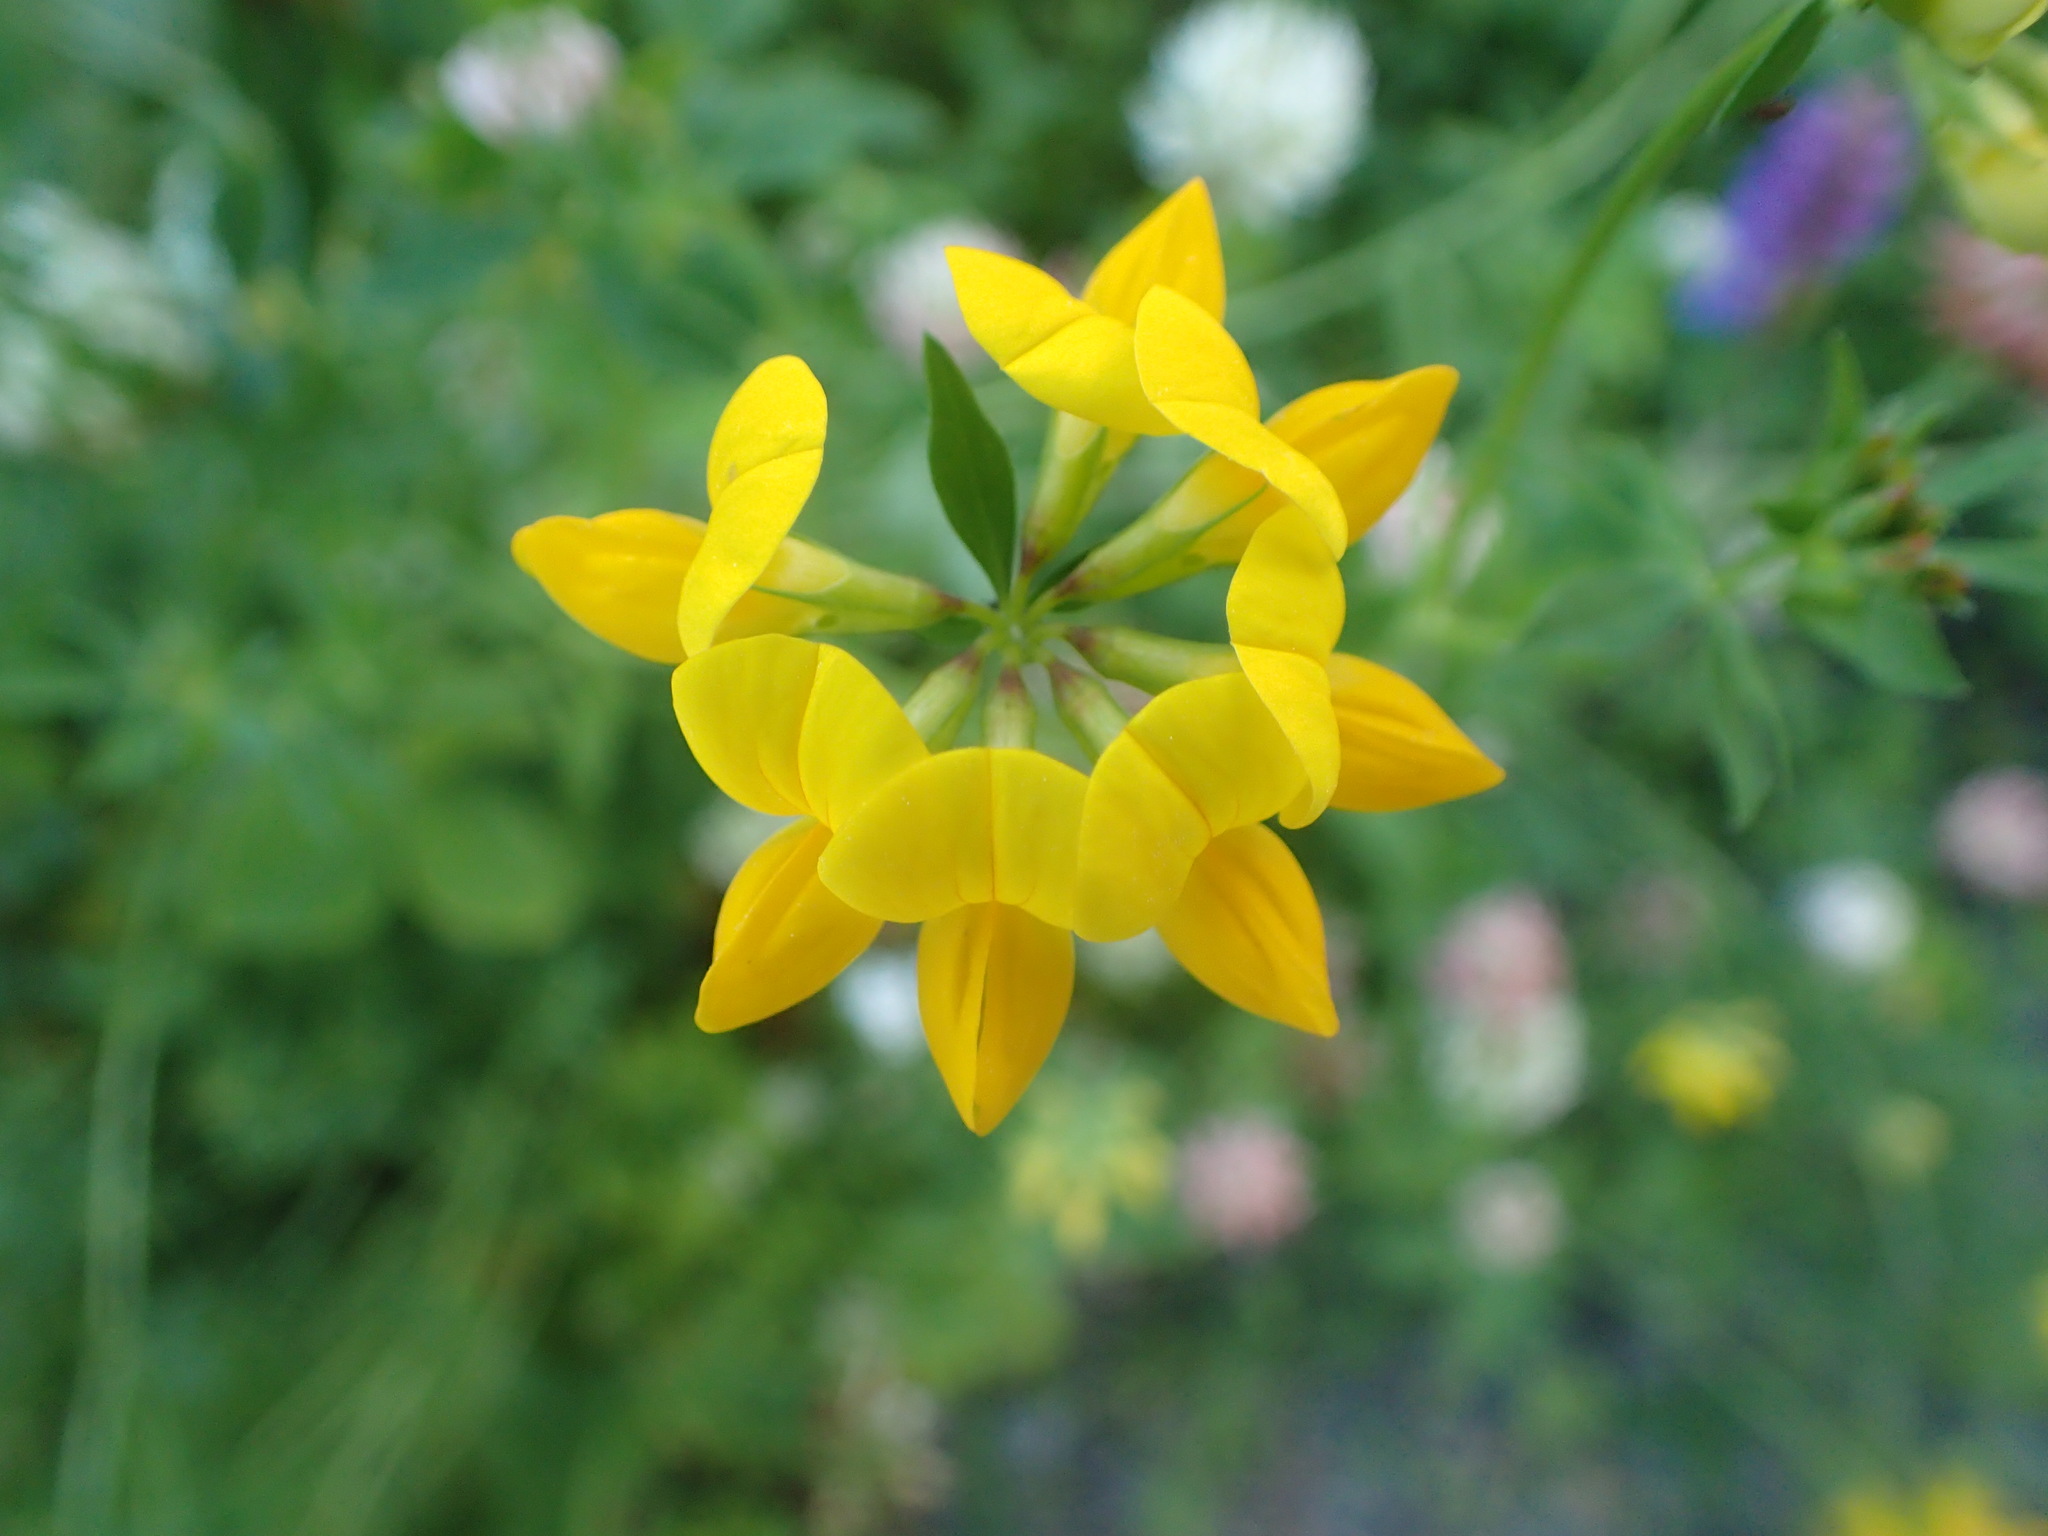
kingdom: Plantae
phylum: Tracheophyta
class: Magnoliopsida
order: Fabales
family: Fabaceae
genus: Lotus
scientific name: Lotus corniculatus
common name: Common bird's-foot-trefoil
